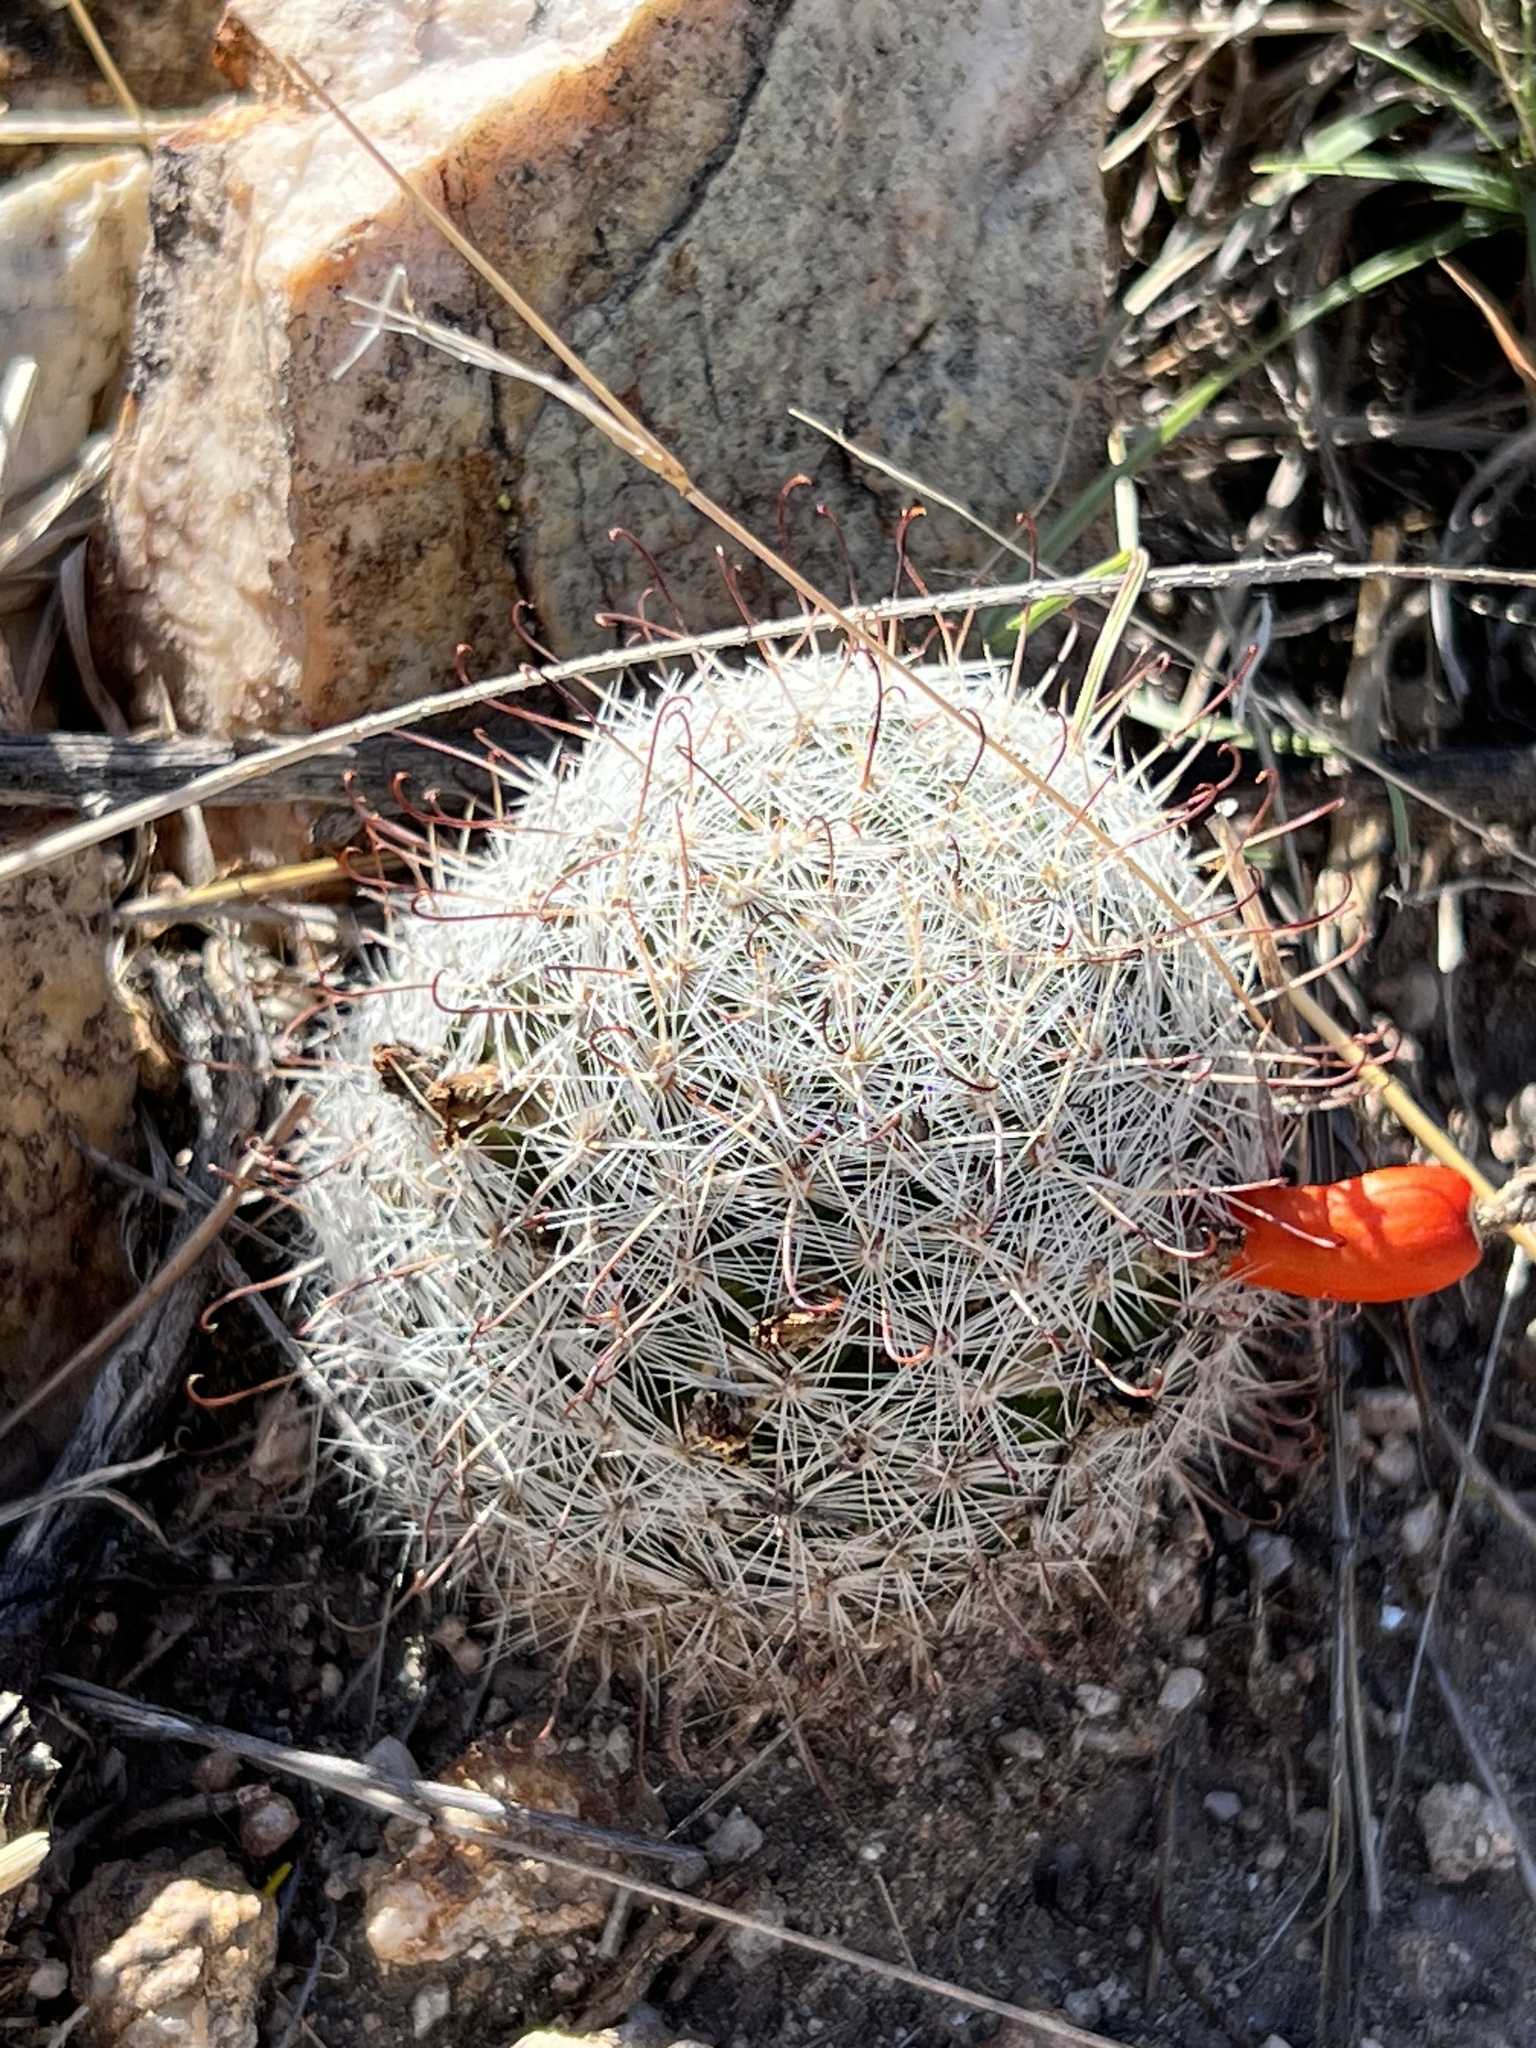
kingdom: Plantae
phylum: Tracheophyta
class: Magnoliopsida
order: Caryophyllales
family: Cactaceae
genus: Cochemiea
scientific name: Cochemiea grahamii
